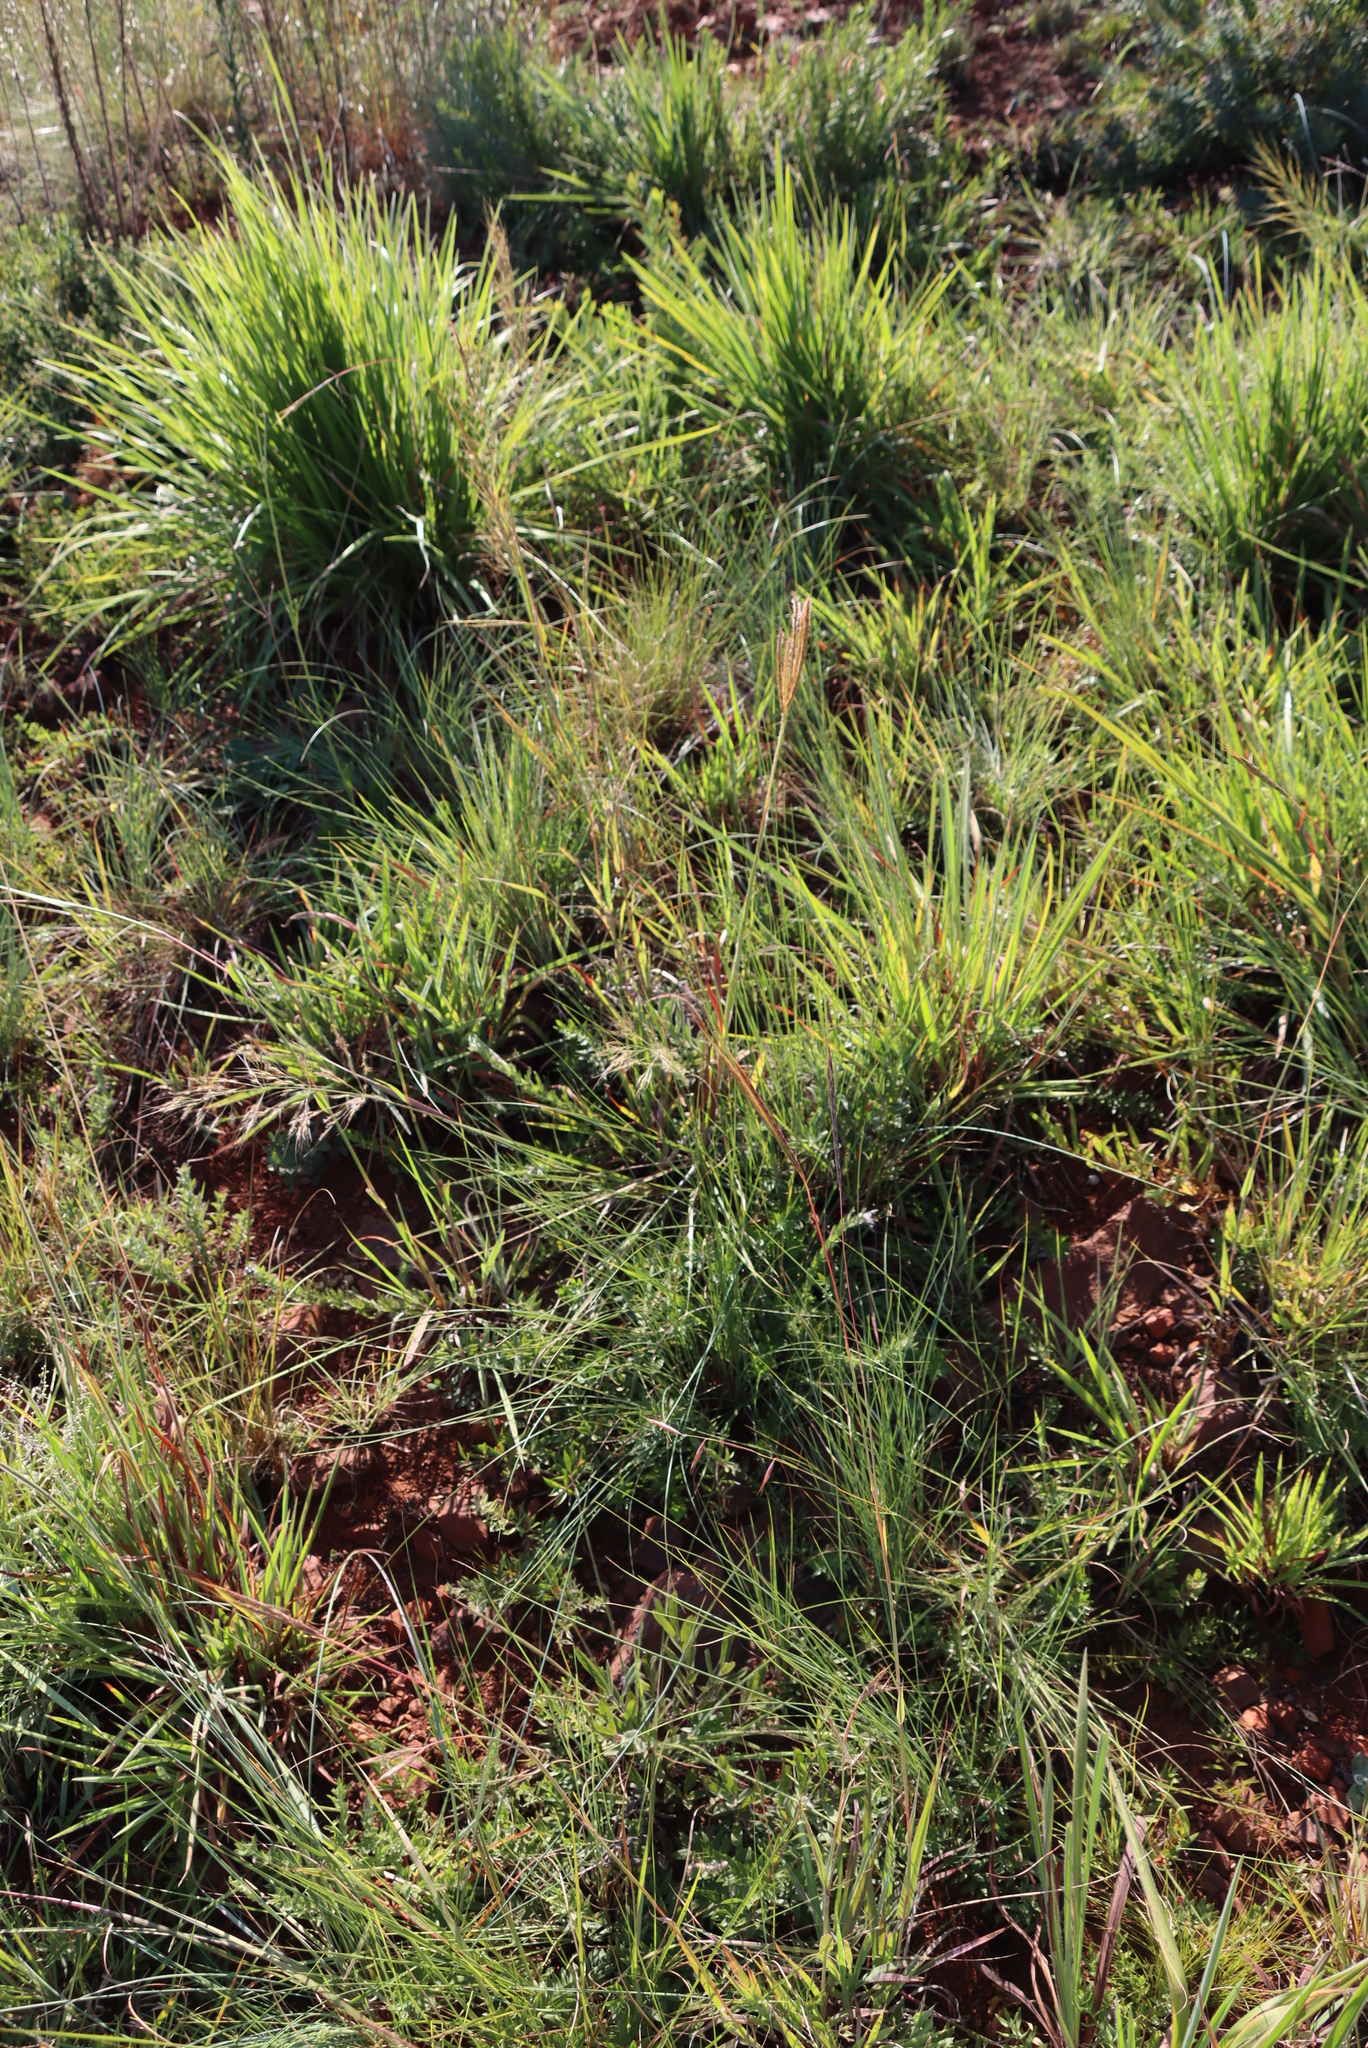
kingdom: Plantae
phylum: Tracheophyta
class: Liliopsida
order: Poales
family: Poaceae
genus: Andropogon
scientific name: Andropogon appendiculatus
